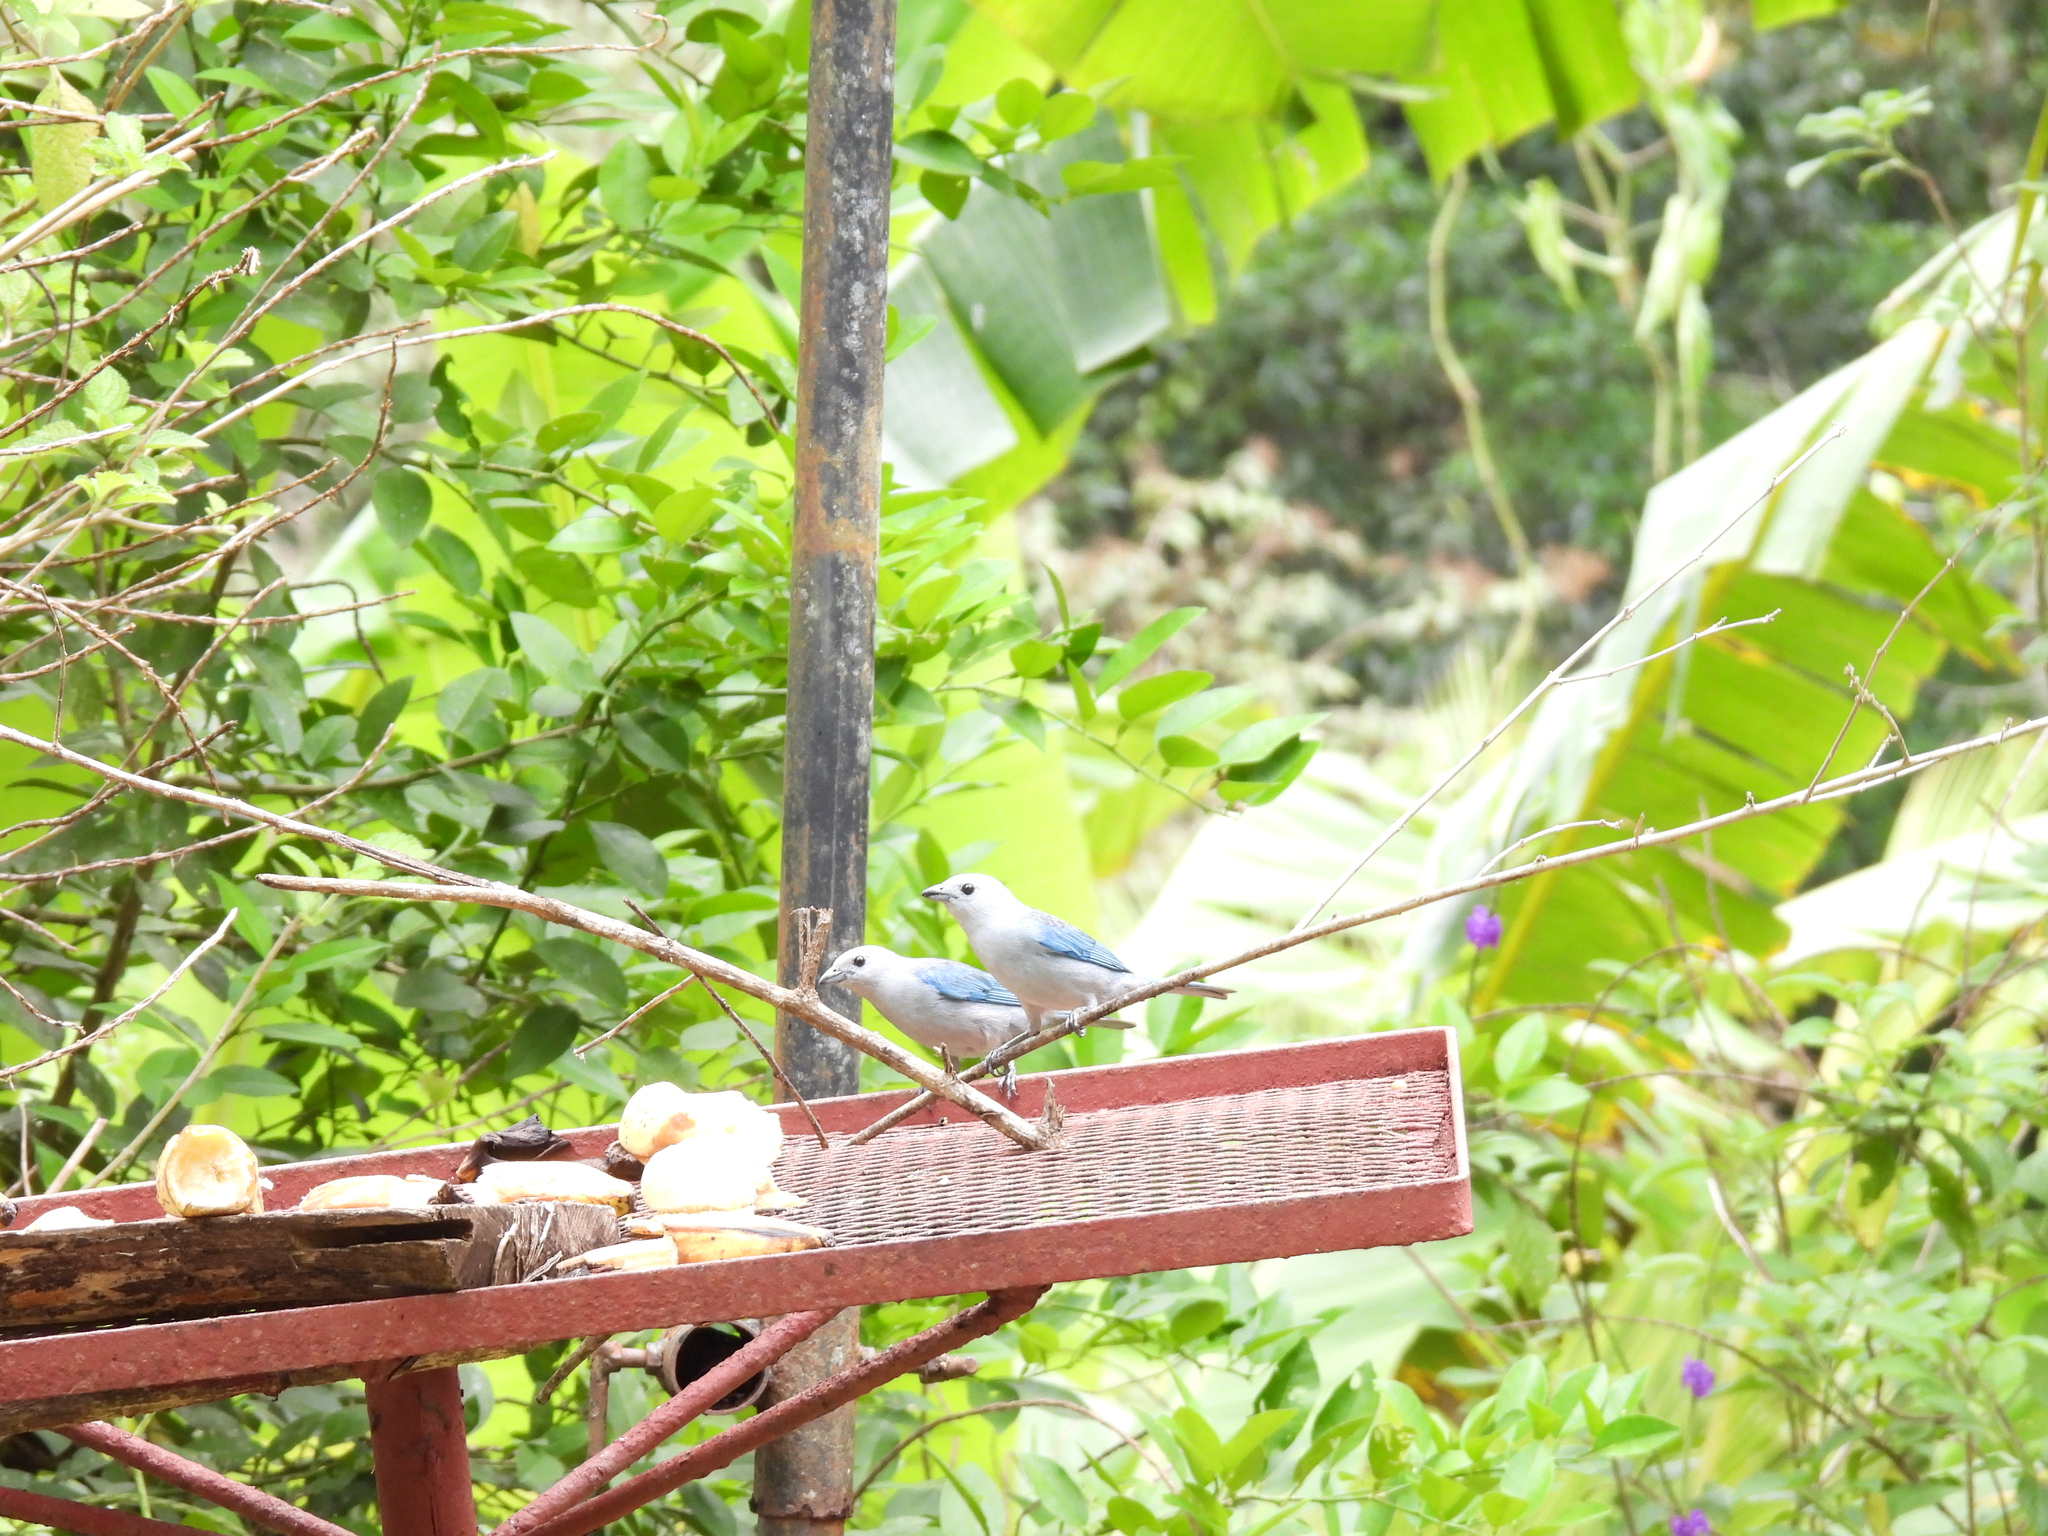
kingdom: Animalia
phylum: Chordata
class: Aves
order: Passeriformes
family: Thraupidae
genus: Thraupis
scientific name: Thraupis episcopus
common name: Blue-grey tanager
